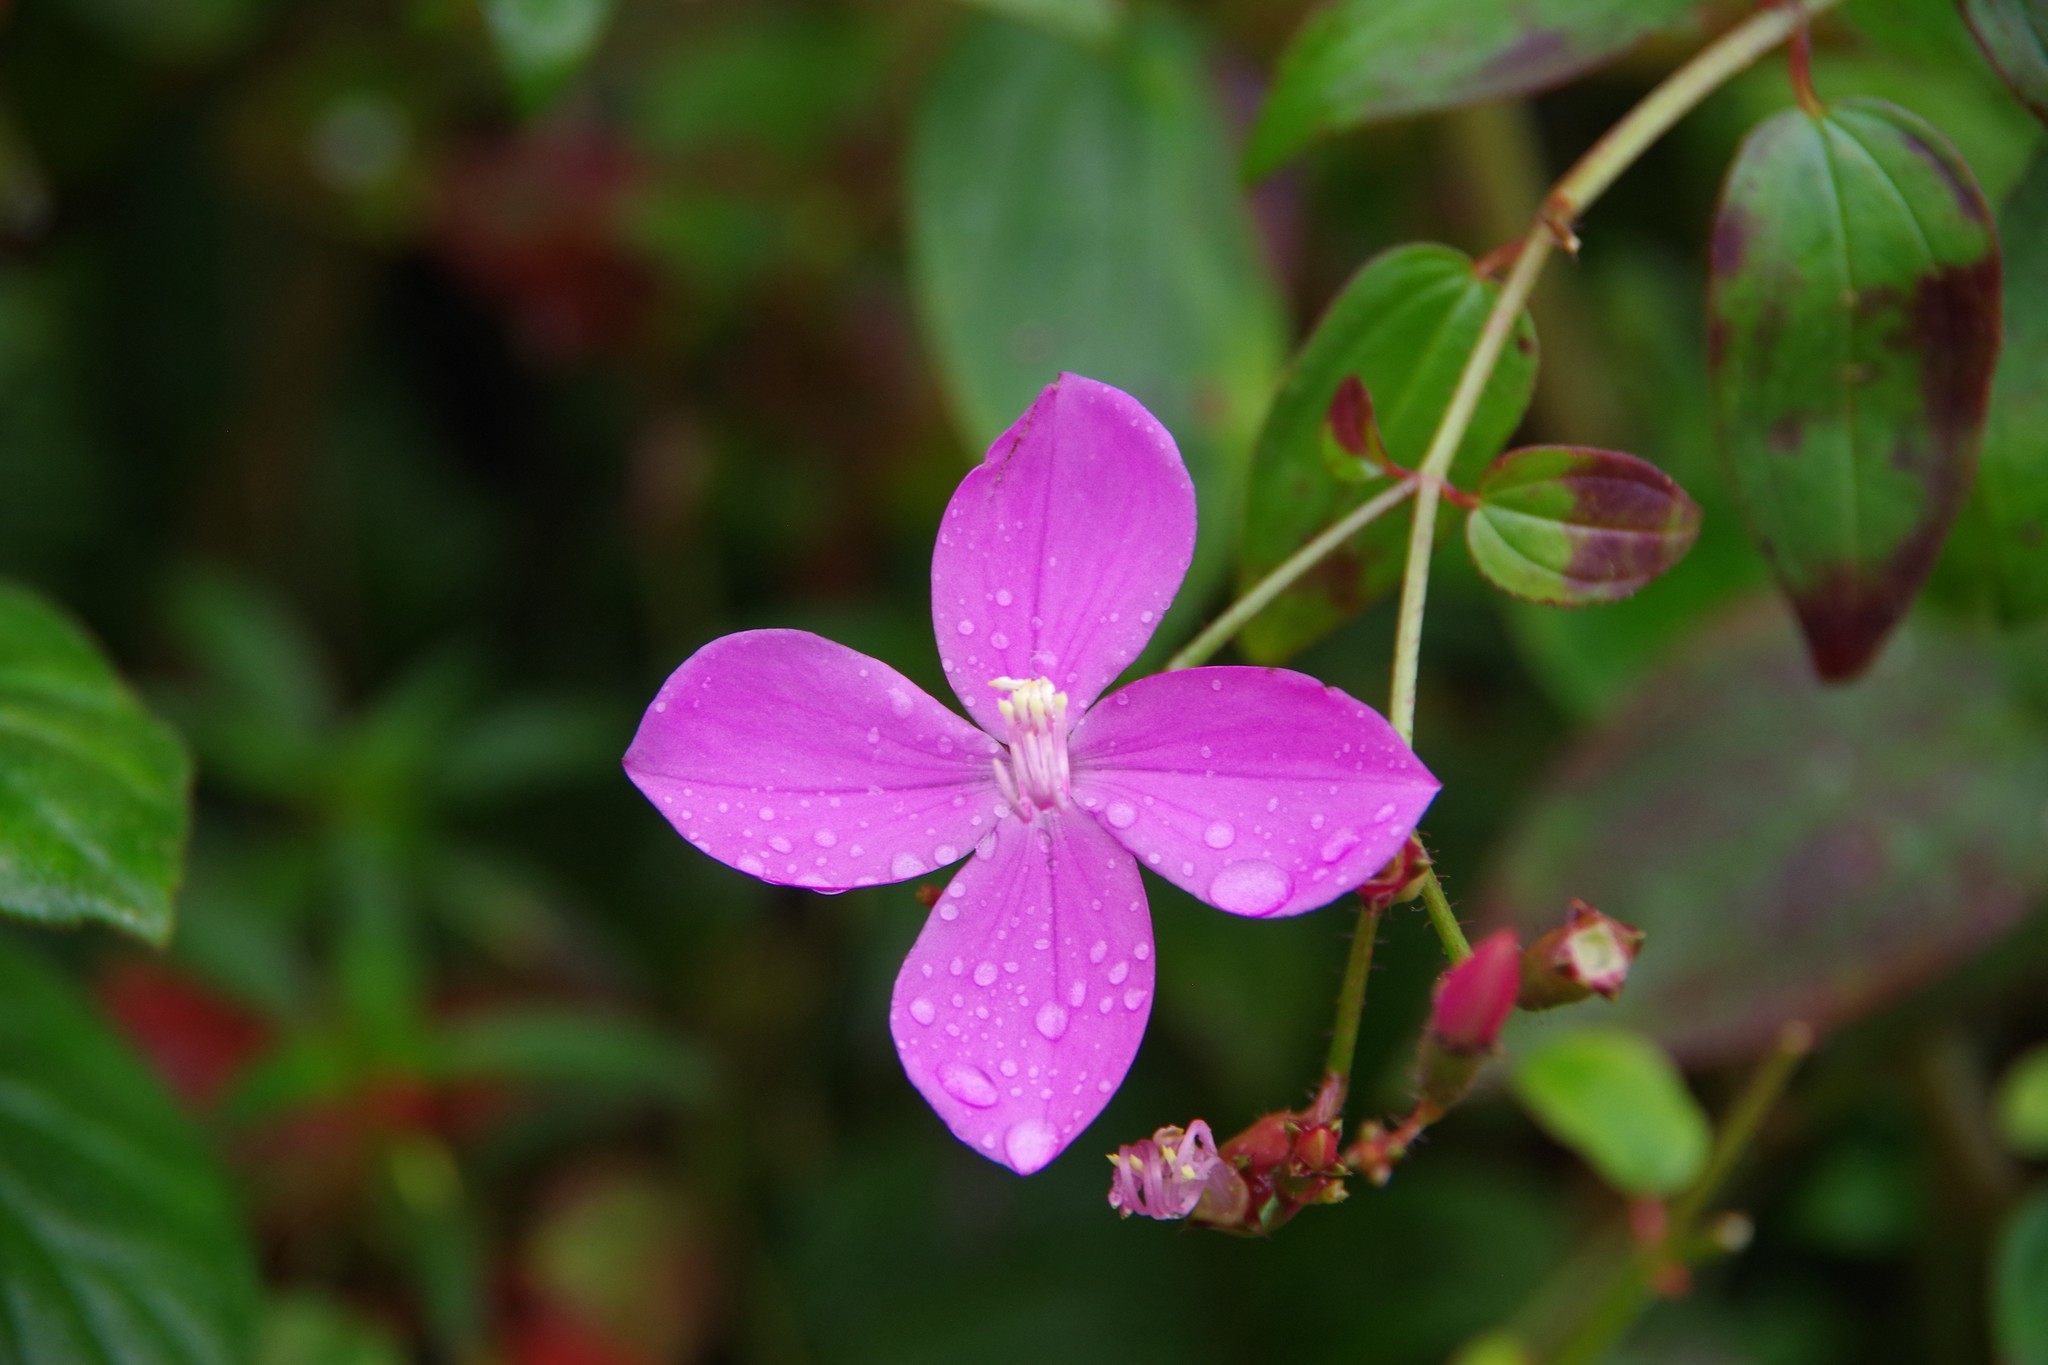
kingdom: Plantae
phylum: Tracheophyta
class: Magnoliopsida
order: Myrtales
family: Melastomataceae
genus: Arthrostemma
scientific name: Arthrostemma ciliatum
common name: Everblooming eavender
